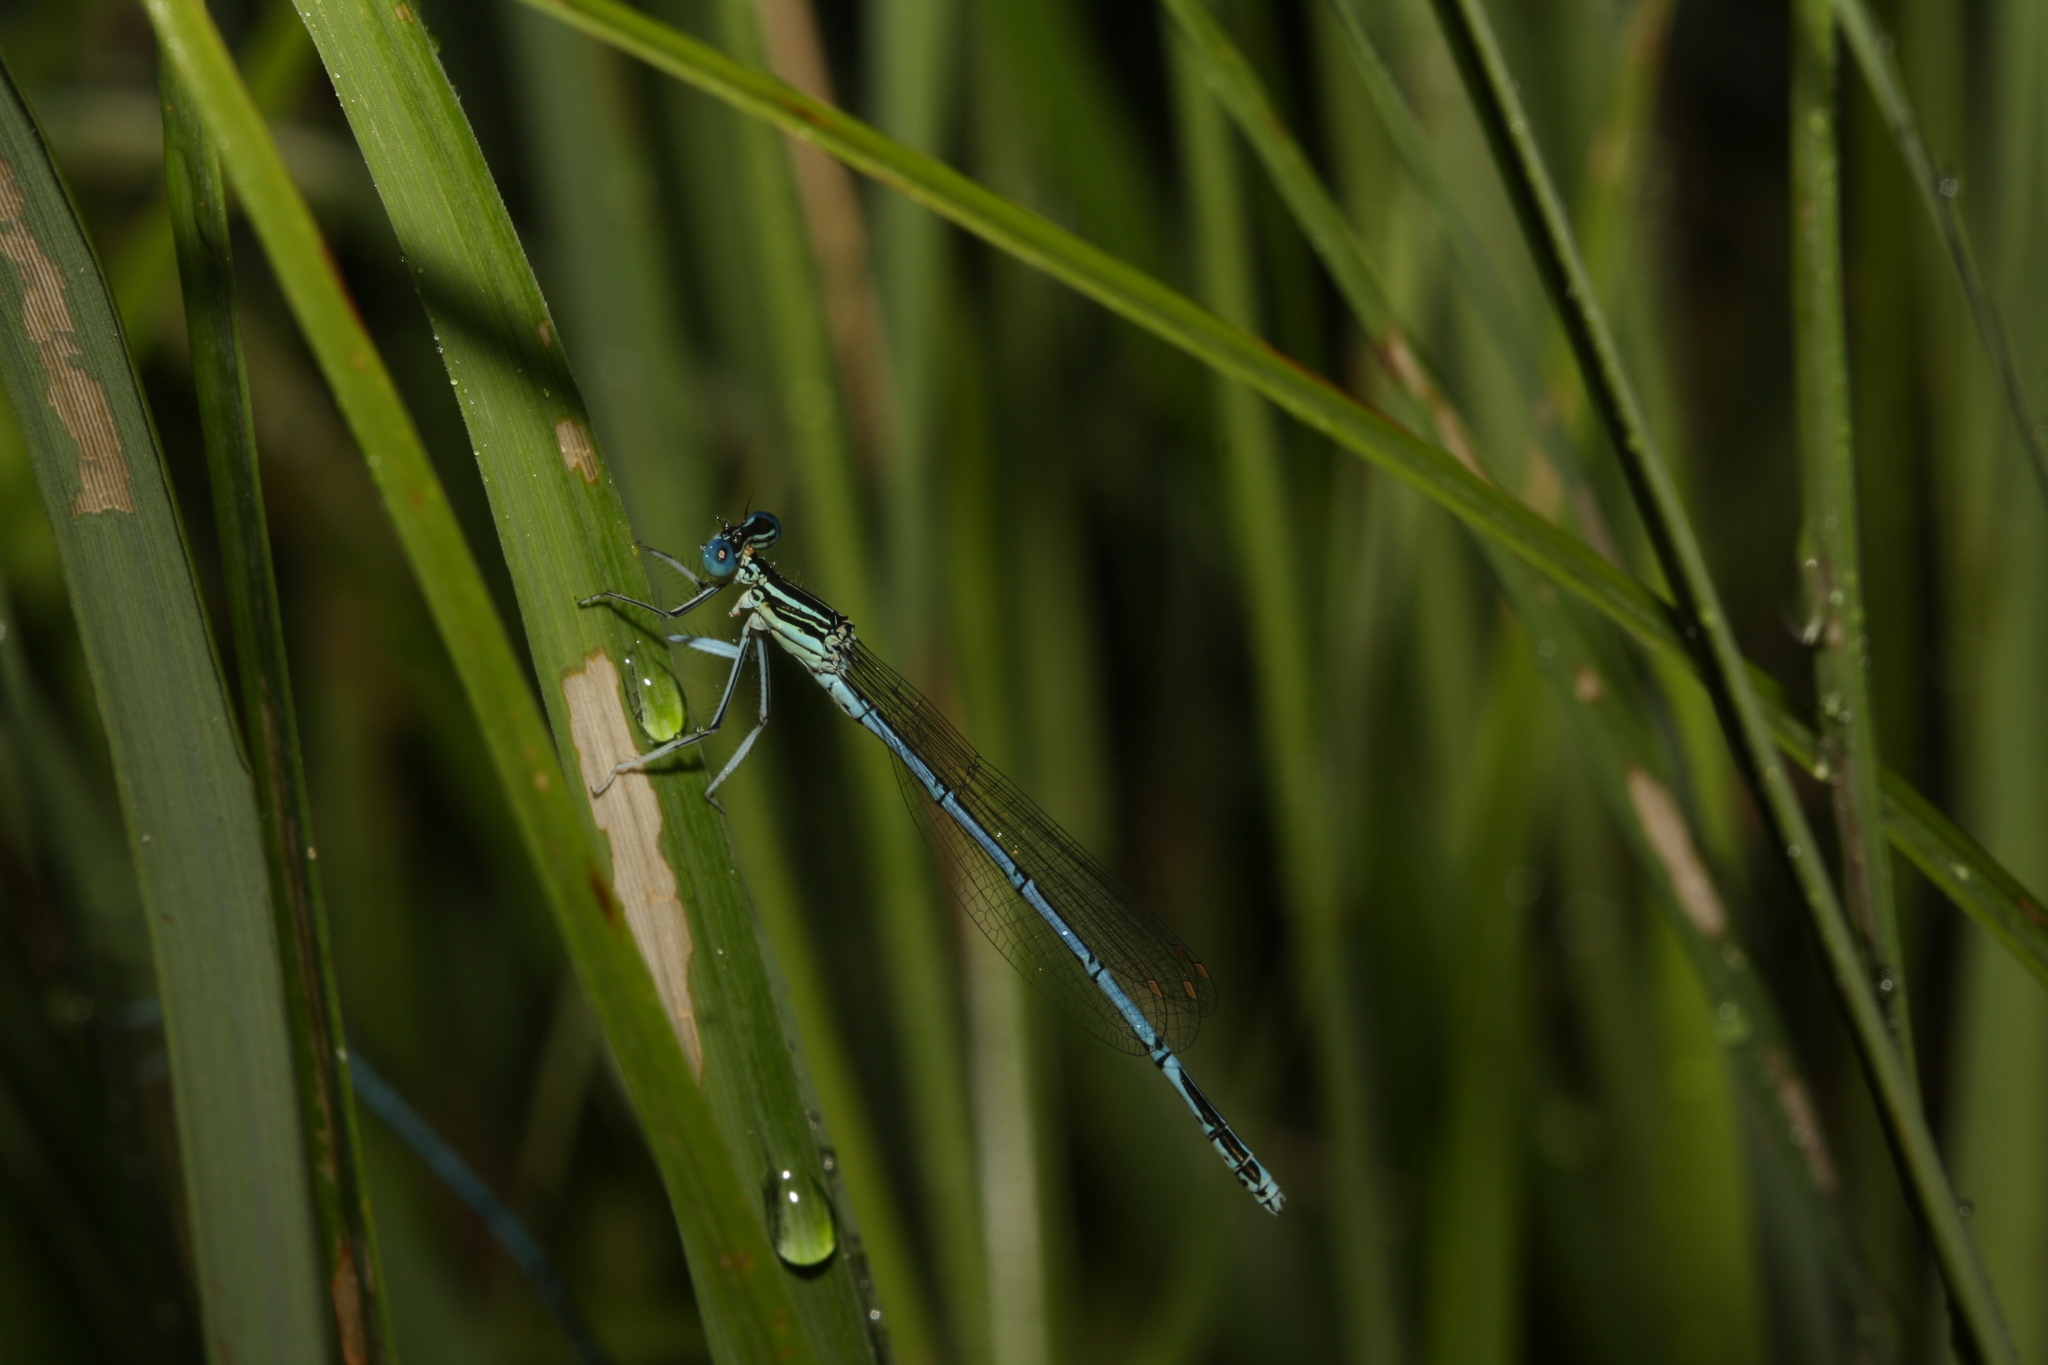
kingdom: Animalia
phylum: Arthropoda
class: Insecta
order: Odonata
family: Platycnemididae
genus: Platycnemis
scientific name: Platycnemis pennipes
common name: White-legged damselfly
